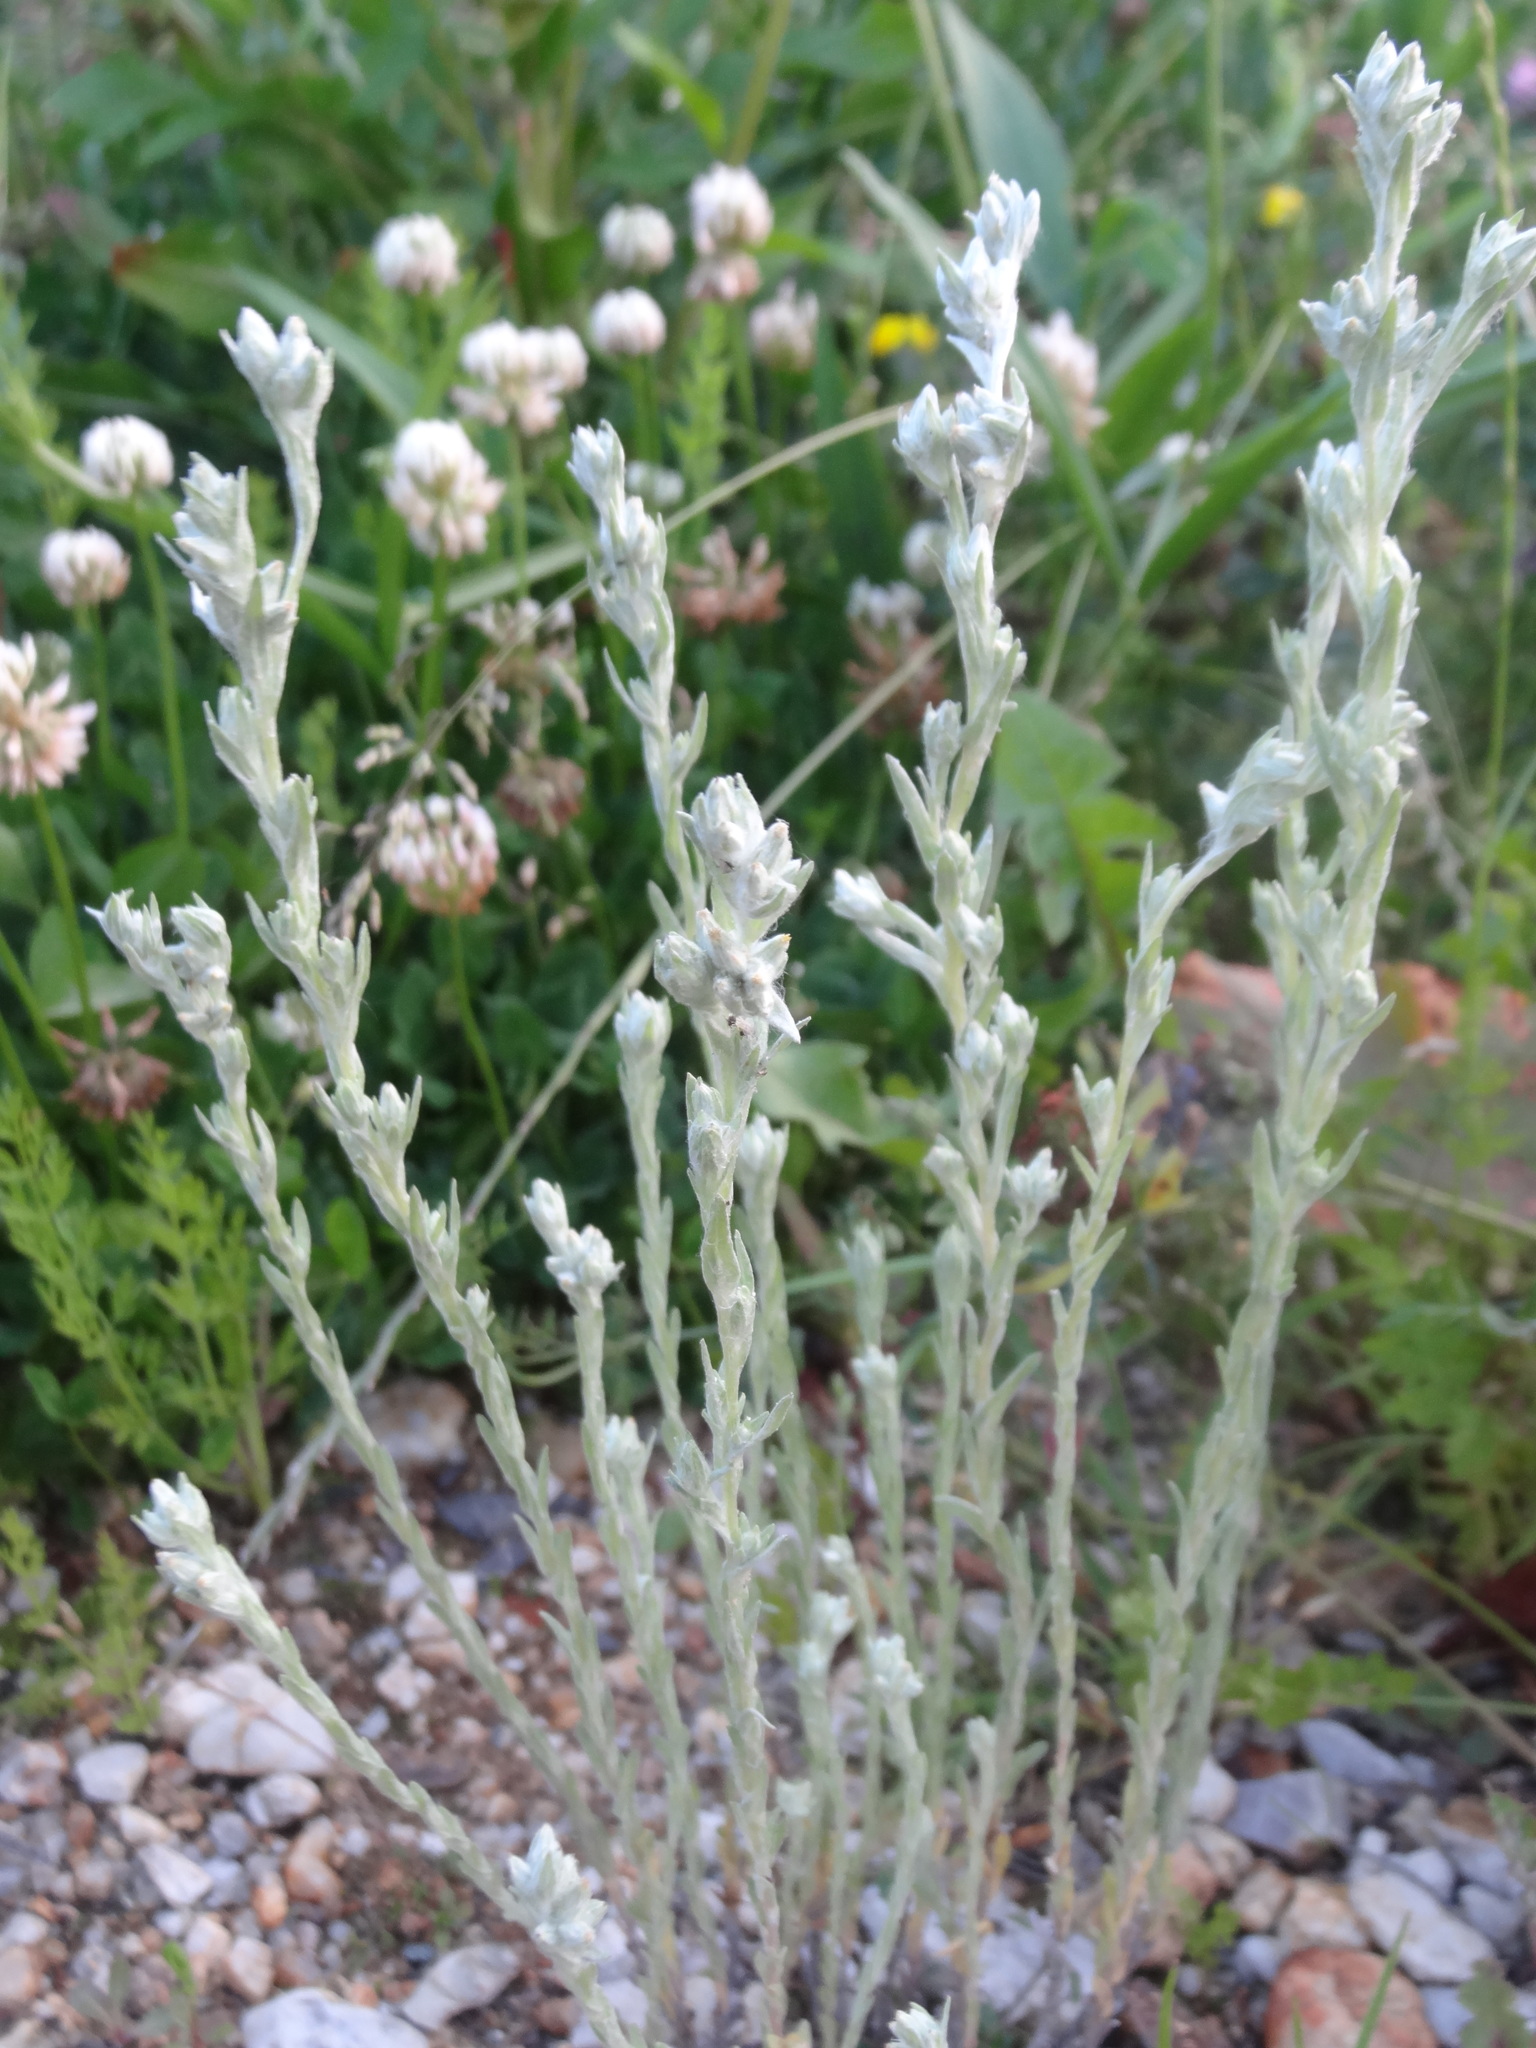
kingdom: Plantae
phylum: Tracheophyta
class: Magnoliopsida
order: Asterales
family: Asteraceae
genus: Filago
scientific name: Filago arvensis
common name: Field cudweed
